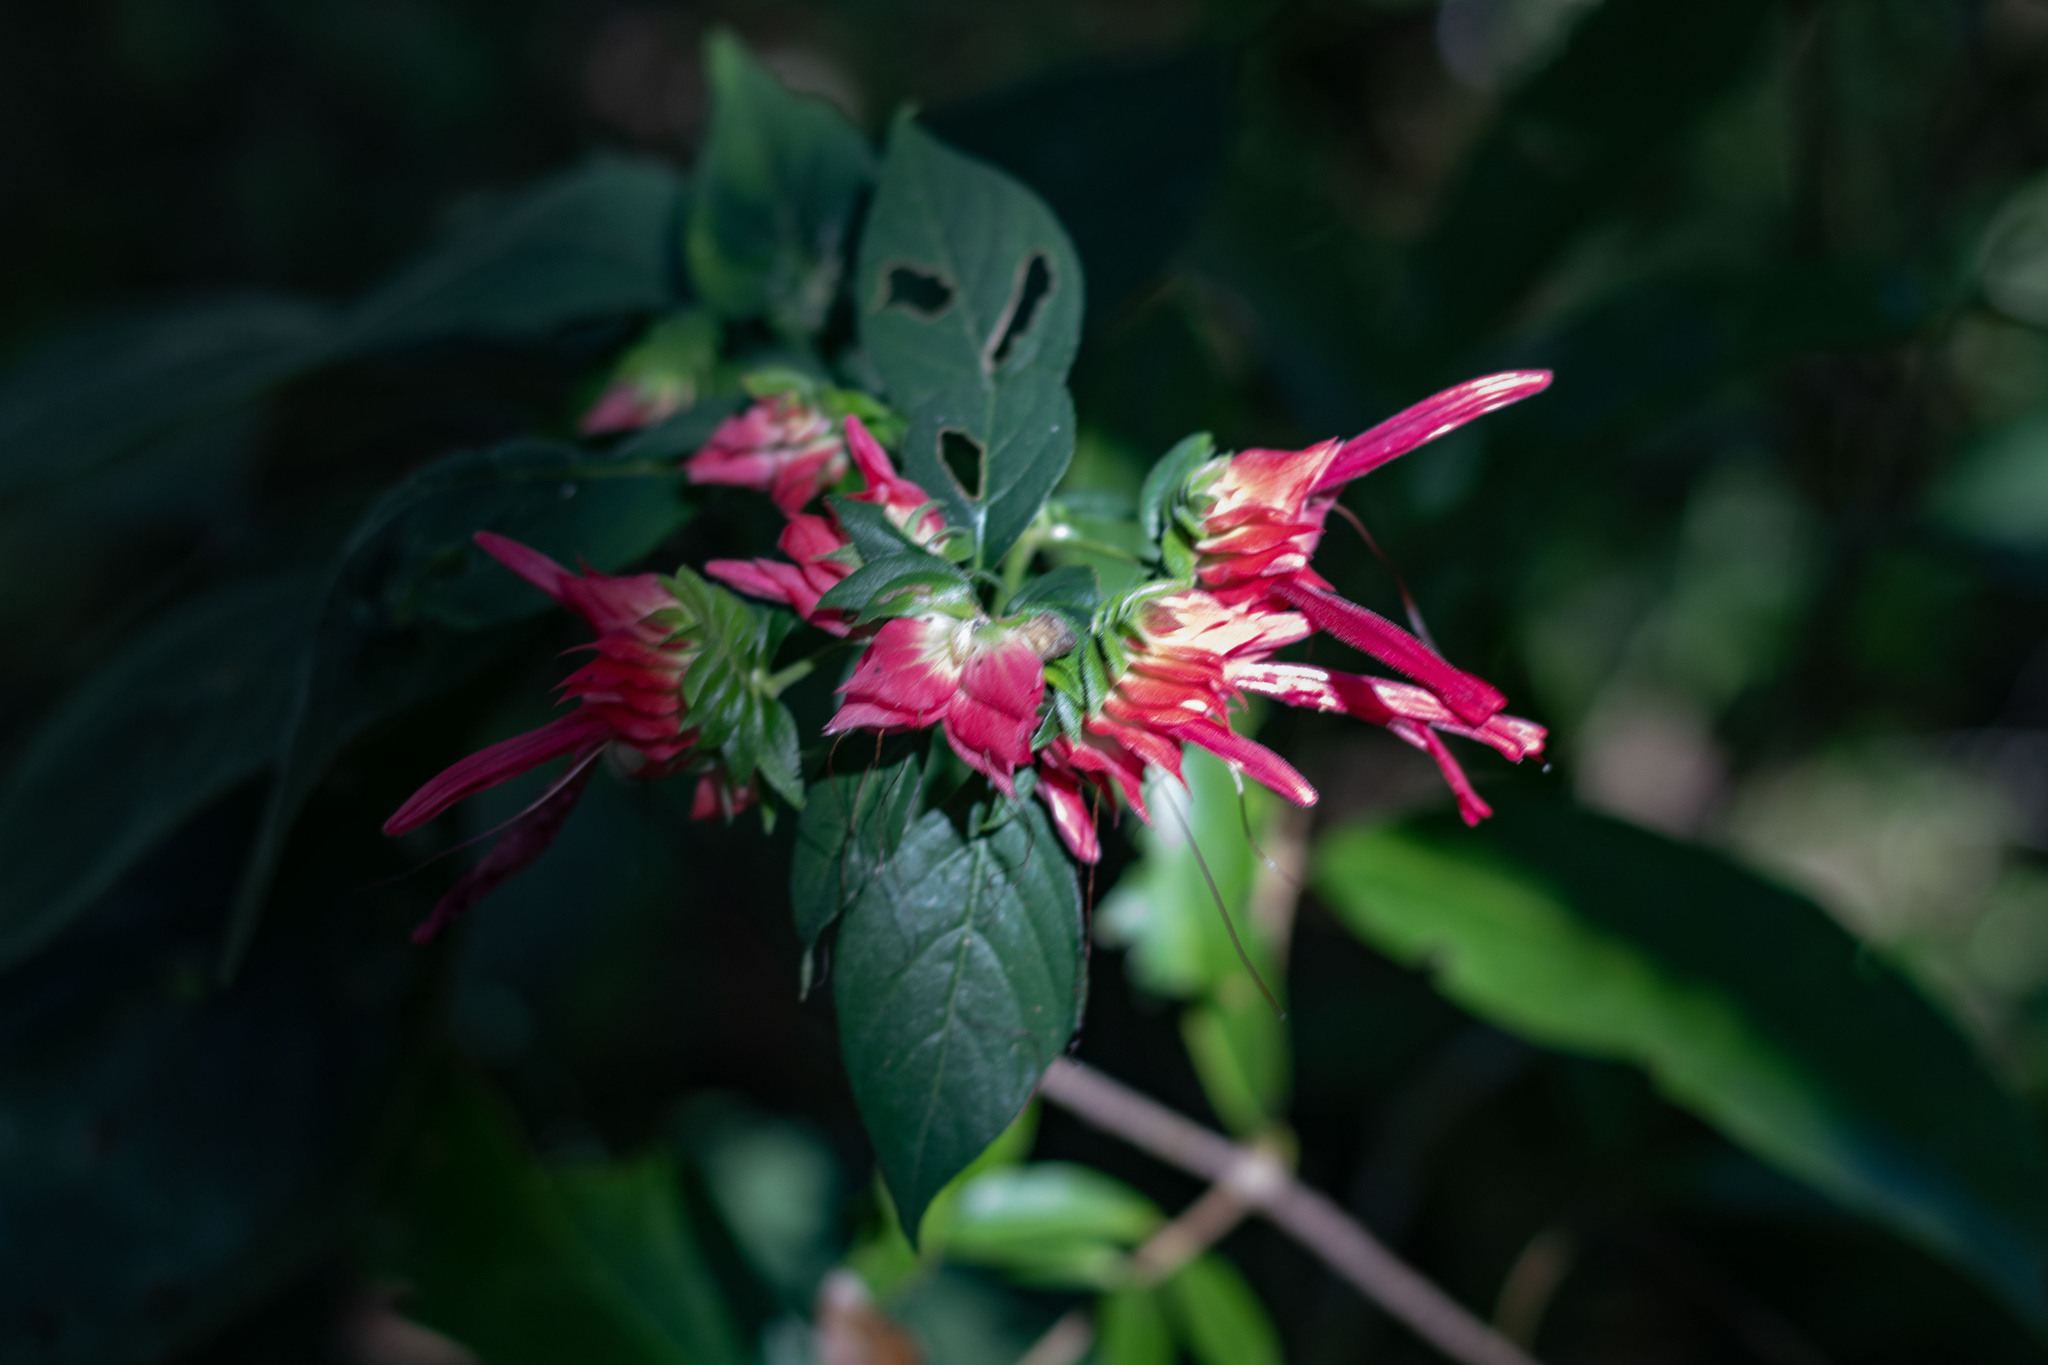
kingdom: Plantae
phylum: Tracheophyta
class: Magnoliopsida
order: Lamiales
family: Acanthaceae
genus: Lepidagathis
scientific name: Lepidagathis floribunda
